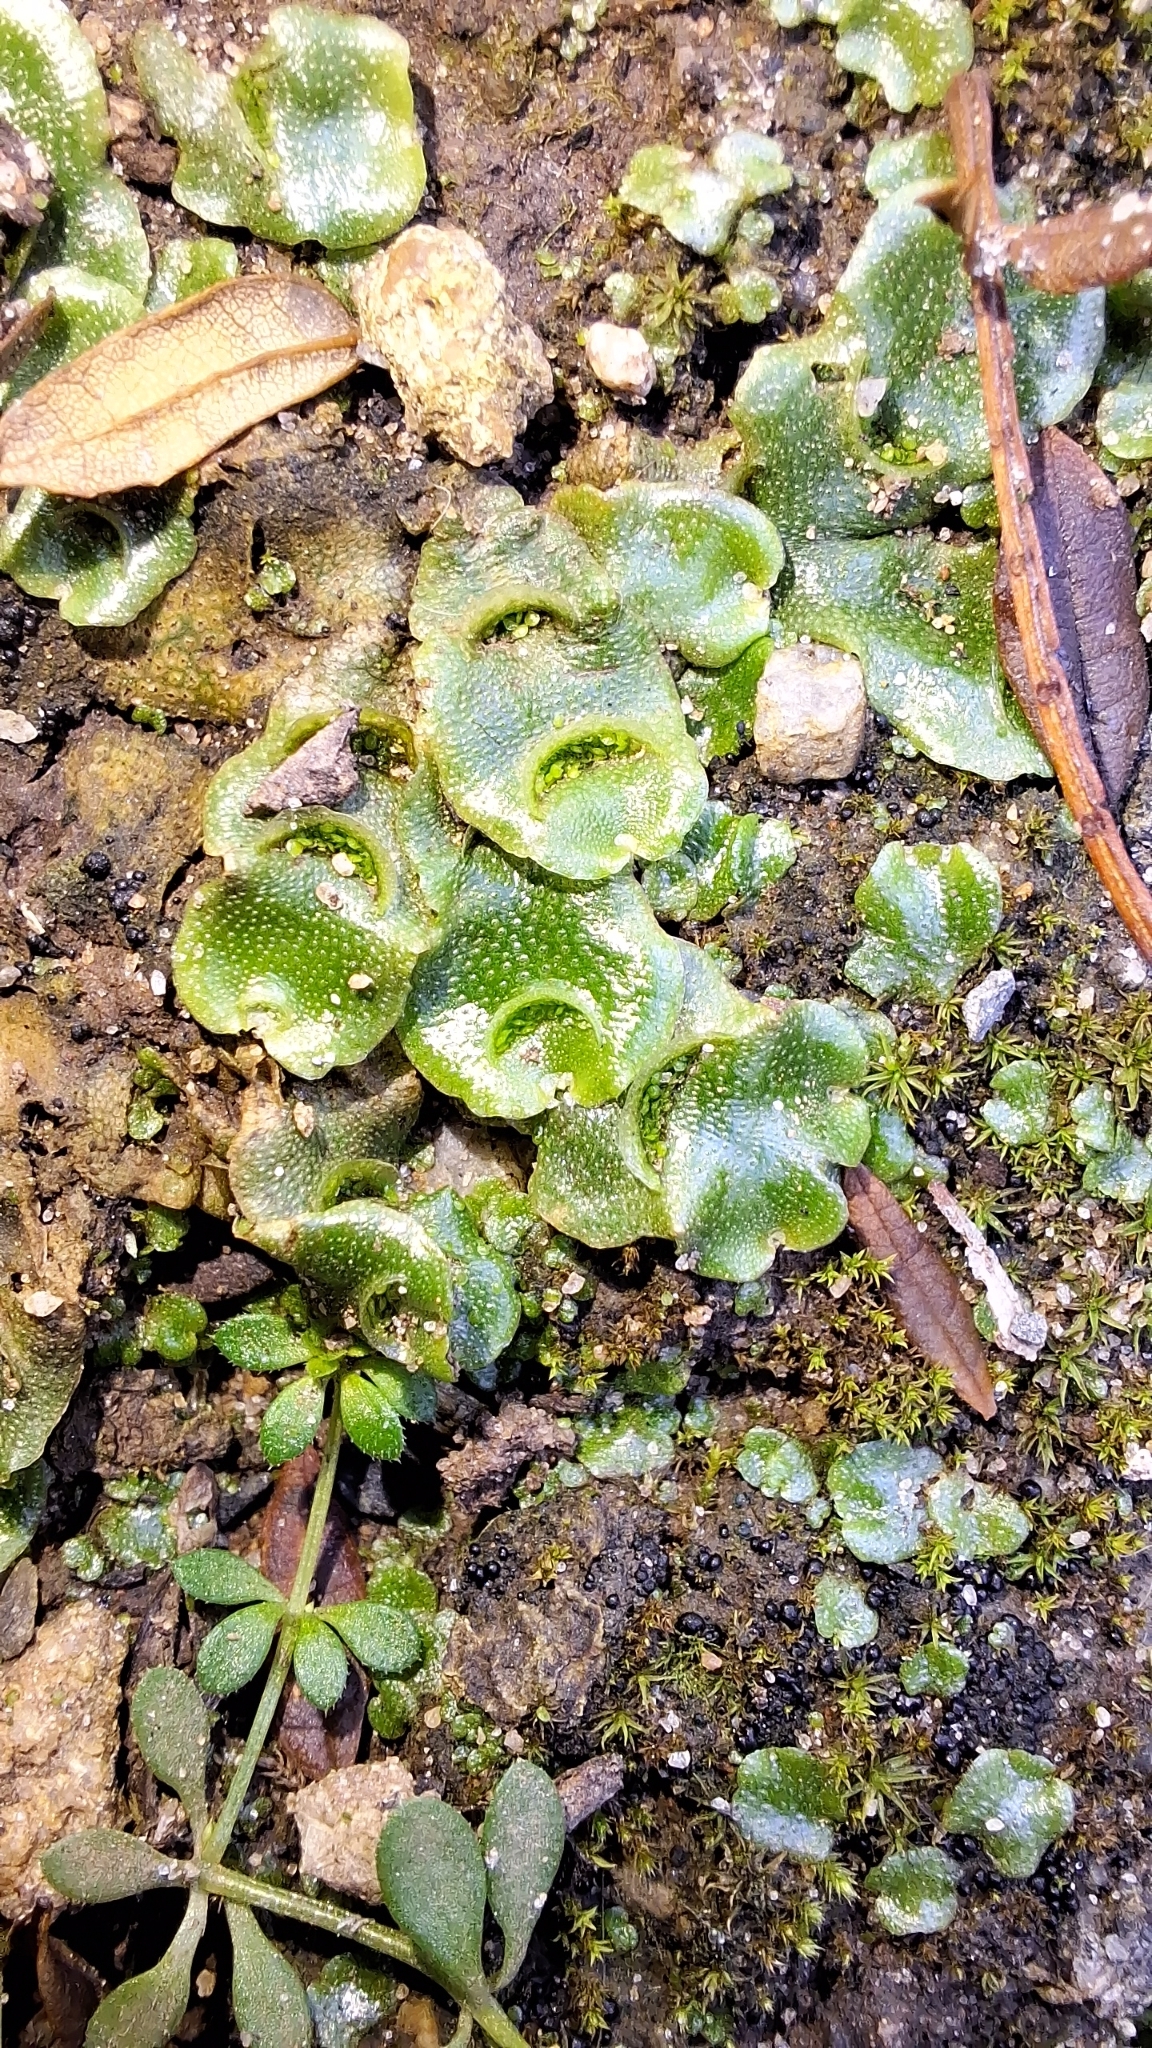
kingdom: Plantae
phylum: Marchantiophyta
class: Marchantiopsida
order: Lunulariales
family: Lunulariaceae
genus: Lunularia
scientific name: Lunularia cruciata
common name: Crescent-cup liverwort
